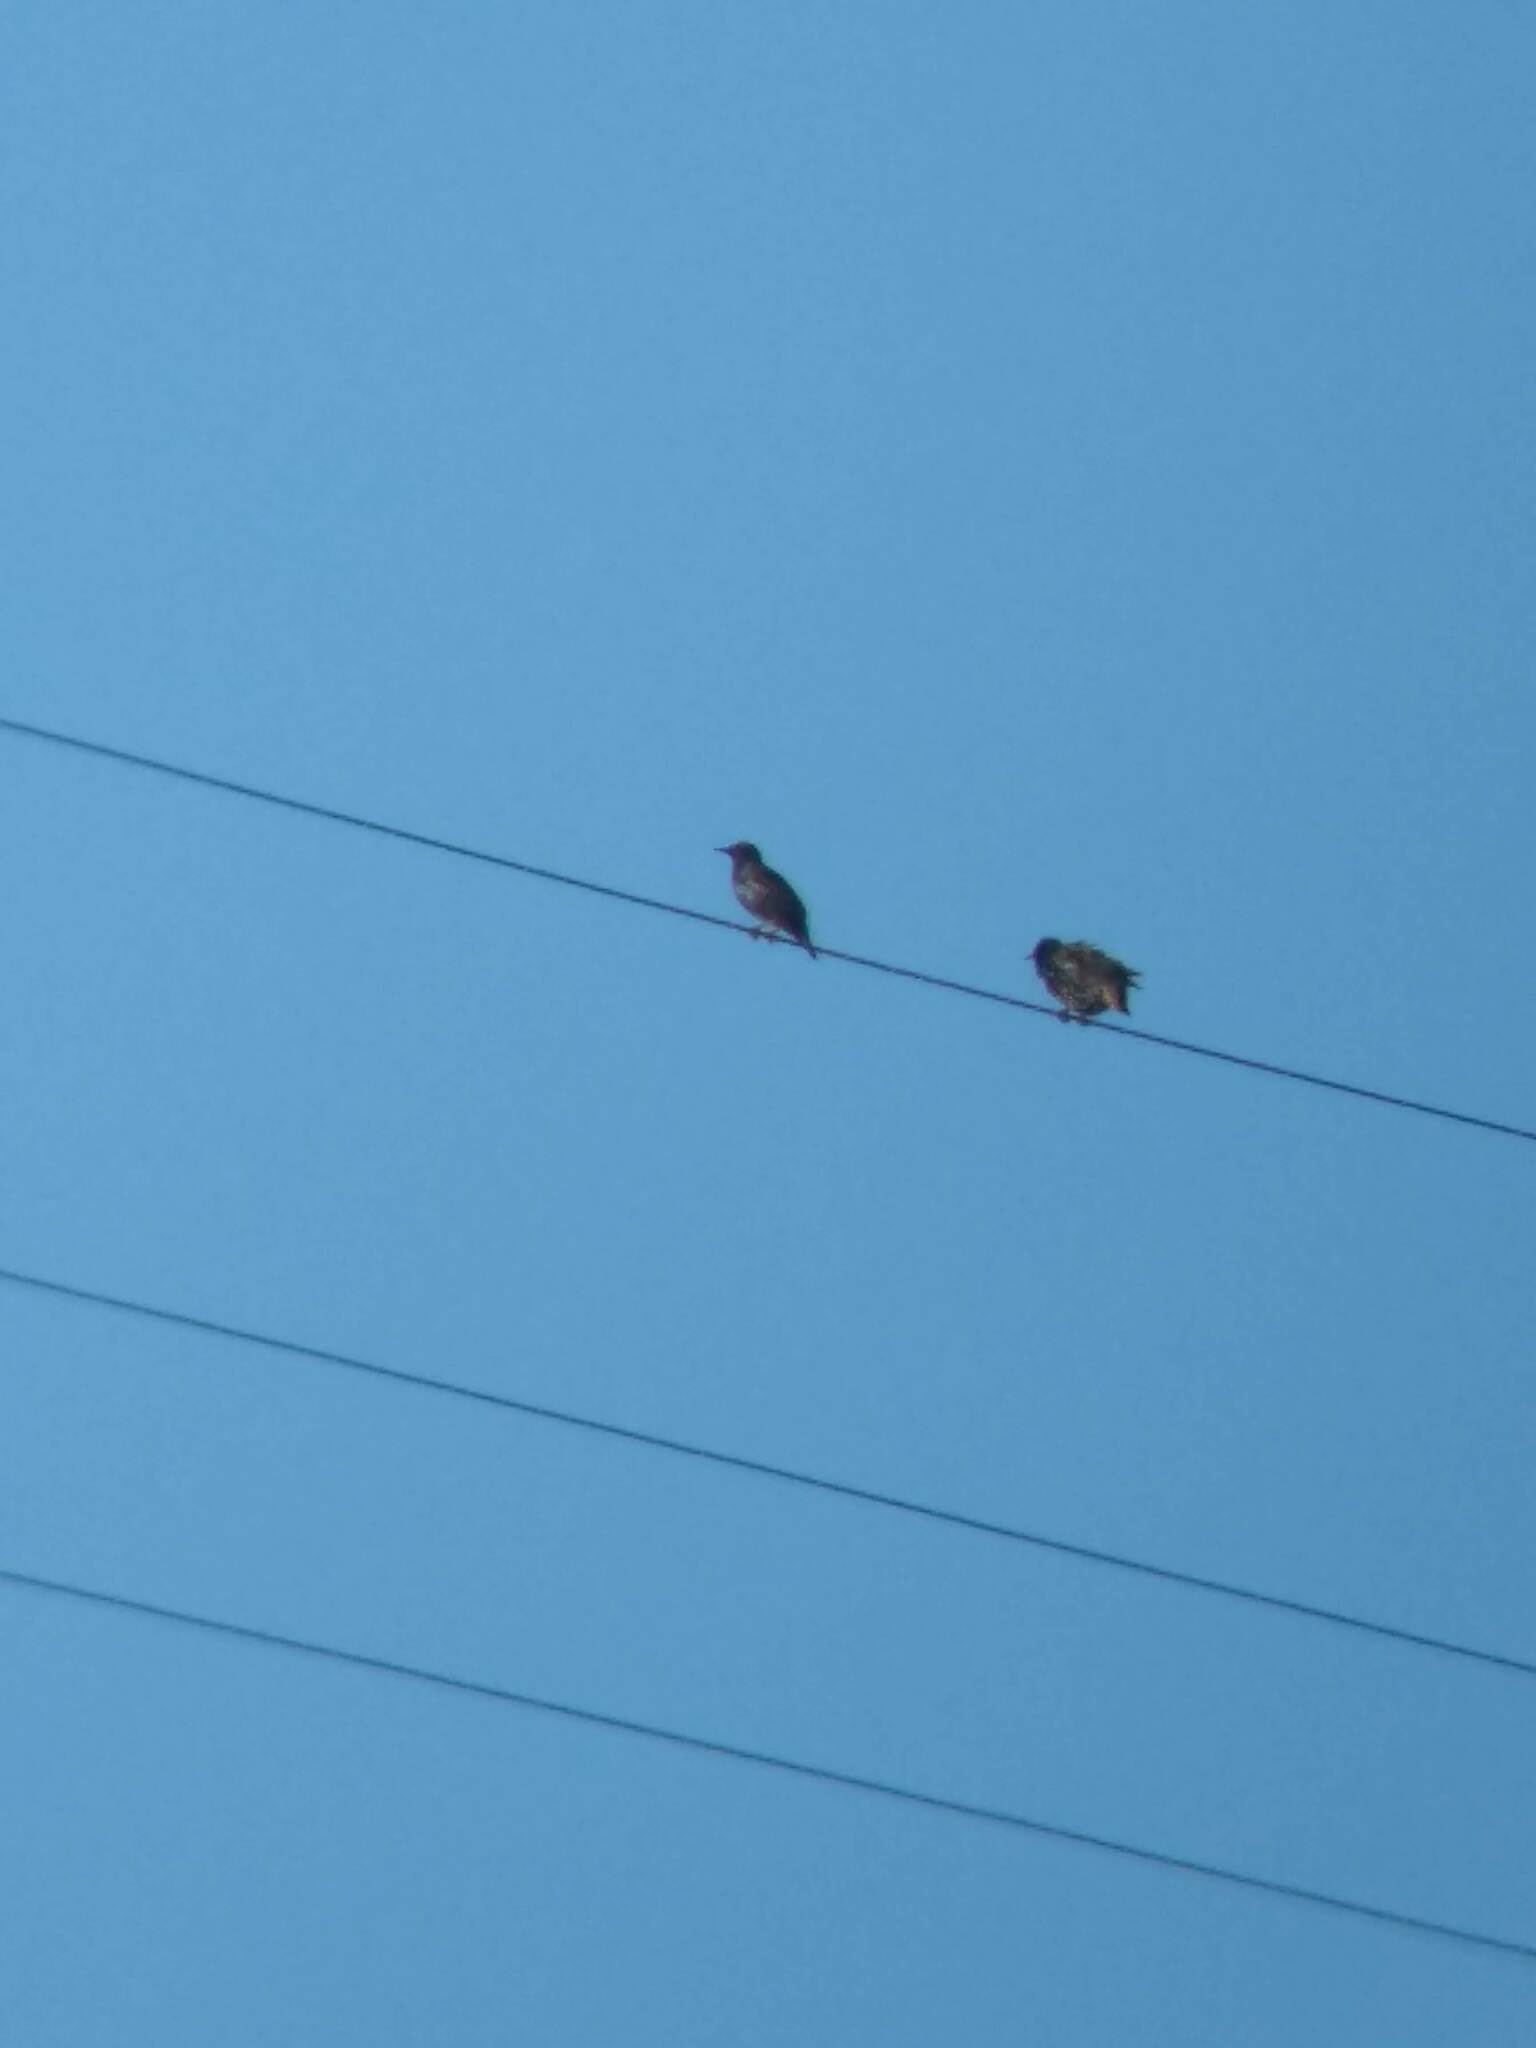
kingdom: Animalia
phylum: Chordata
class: Aves
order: Passeriformes
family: Sturnidae
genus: Sturnus
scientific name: Sturnus vulgaris
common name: Common starling
